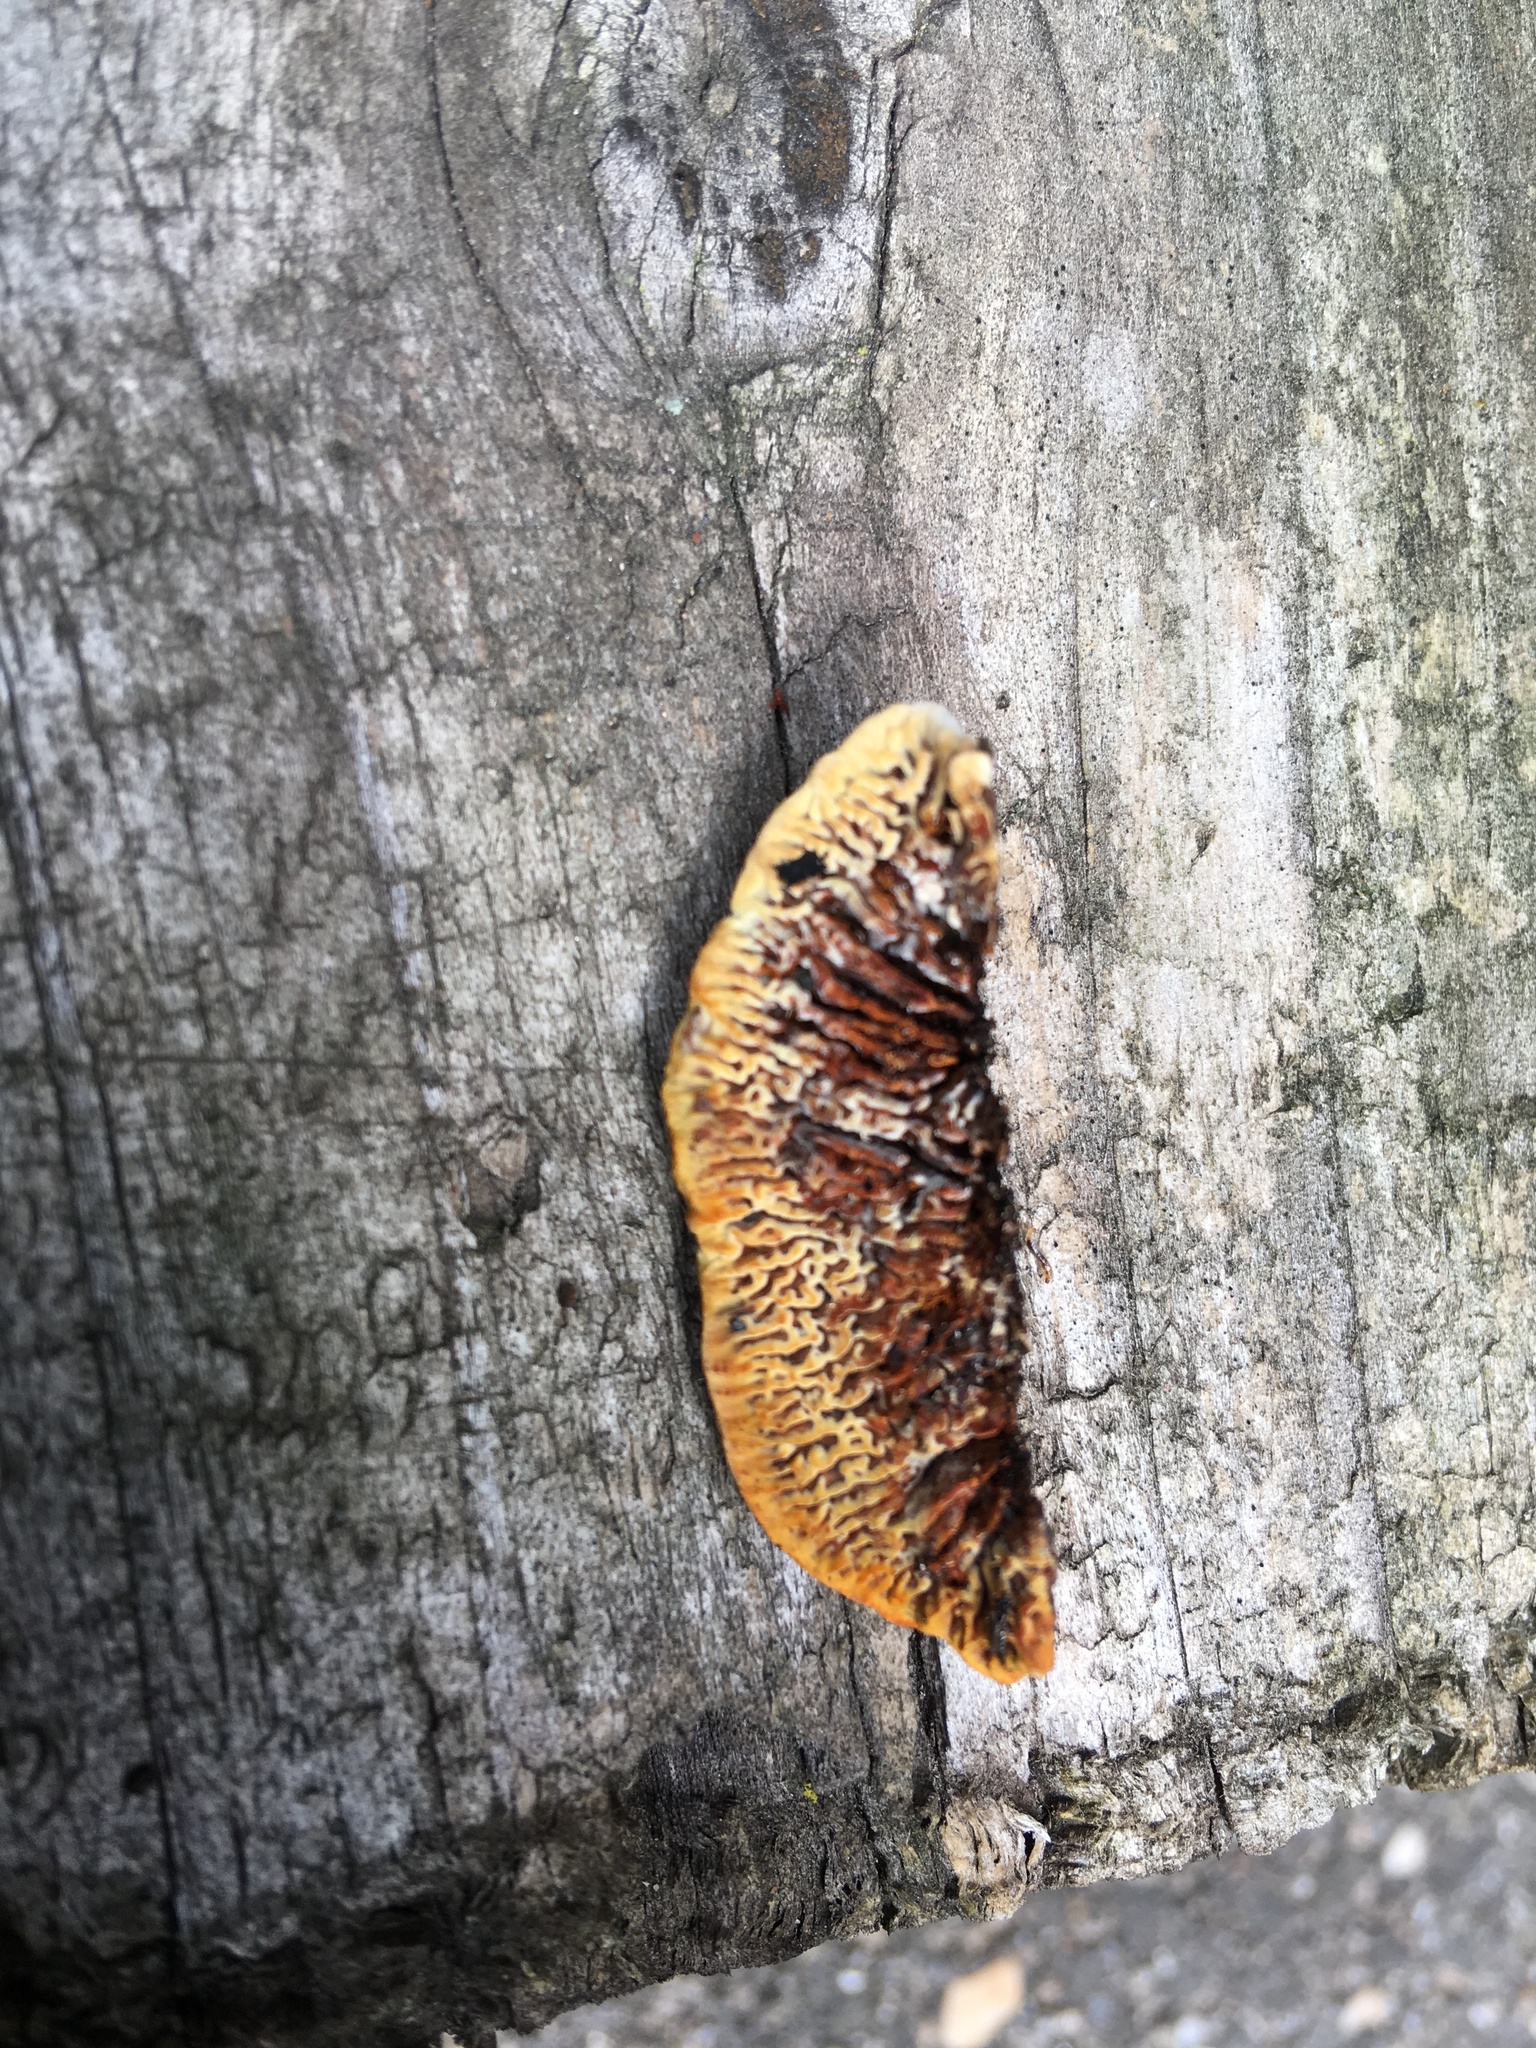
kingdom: Fungi
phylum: Basidiomycota
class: Agaricomycetes
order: Gloeophyllales
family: Gloeophyllaceae
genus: Gloeophyllum
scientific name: Gloeophyllum sepiarium
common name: Conifer mazegill
